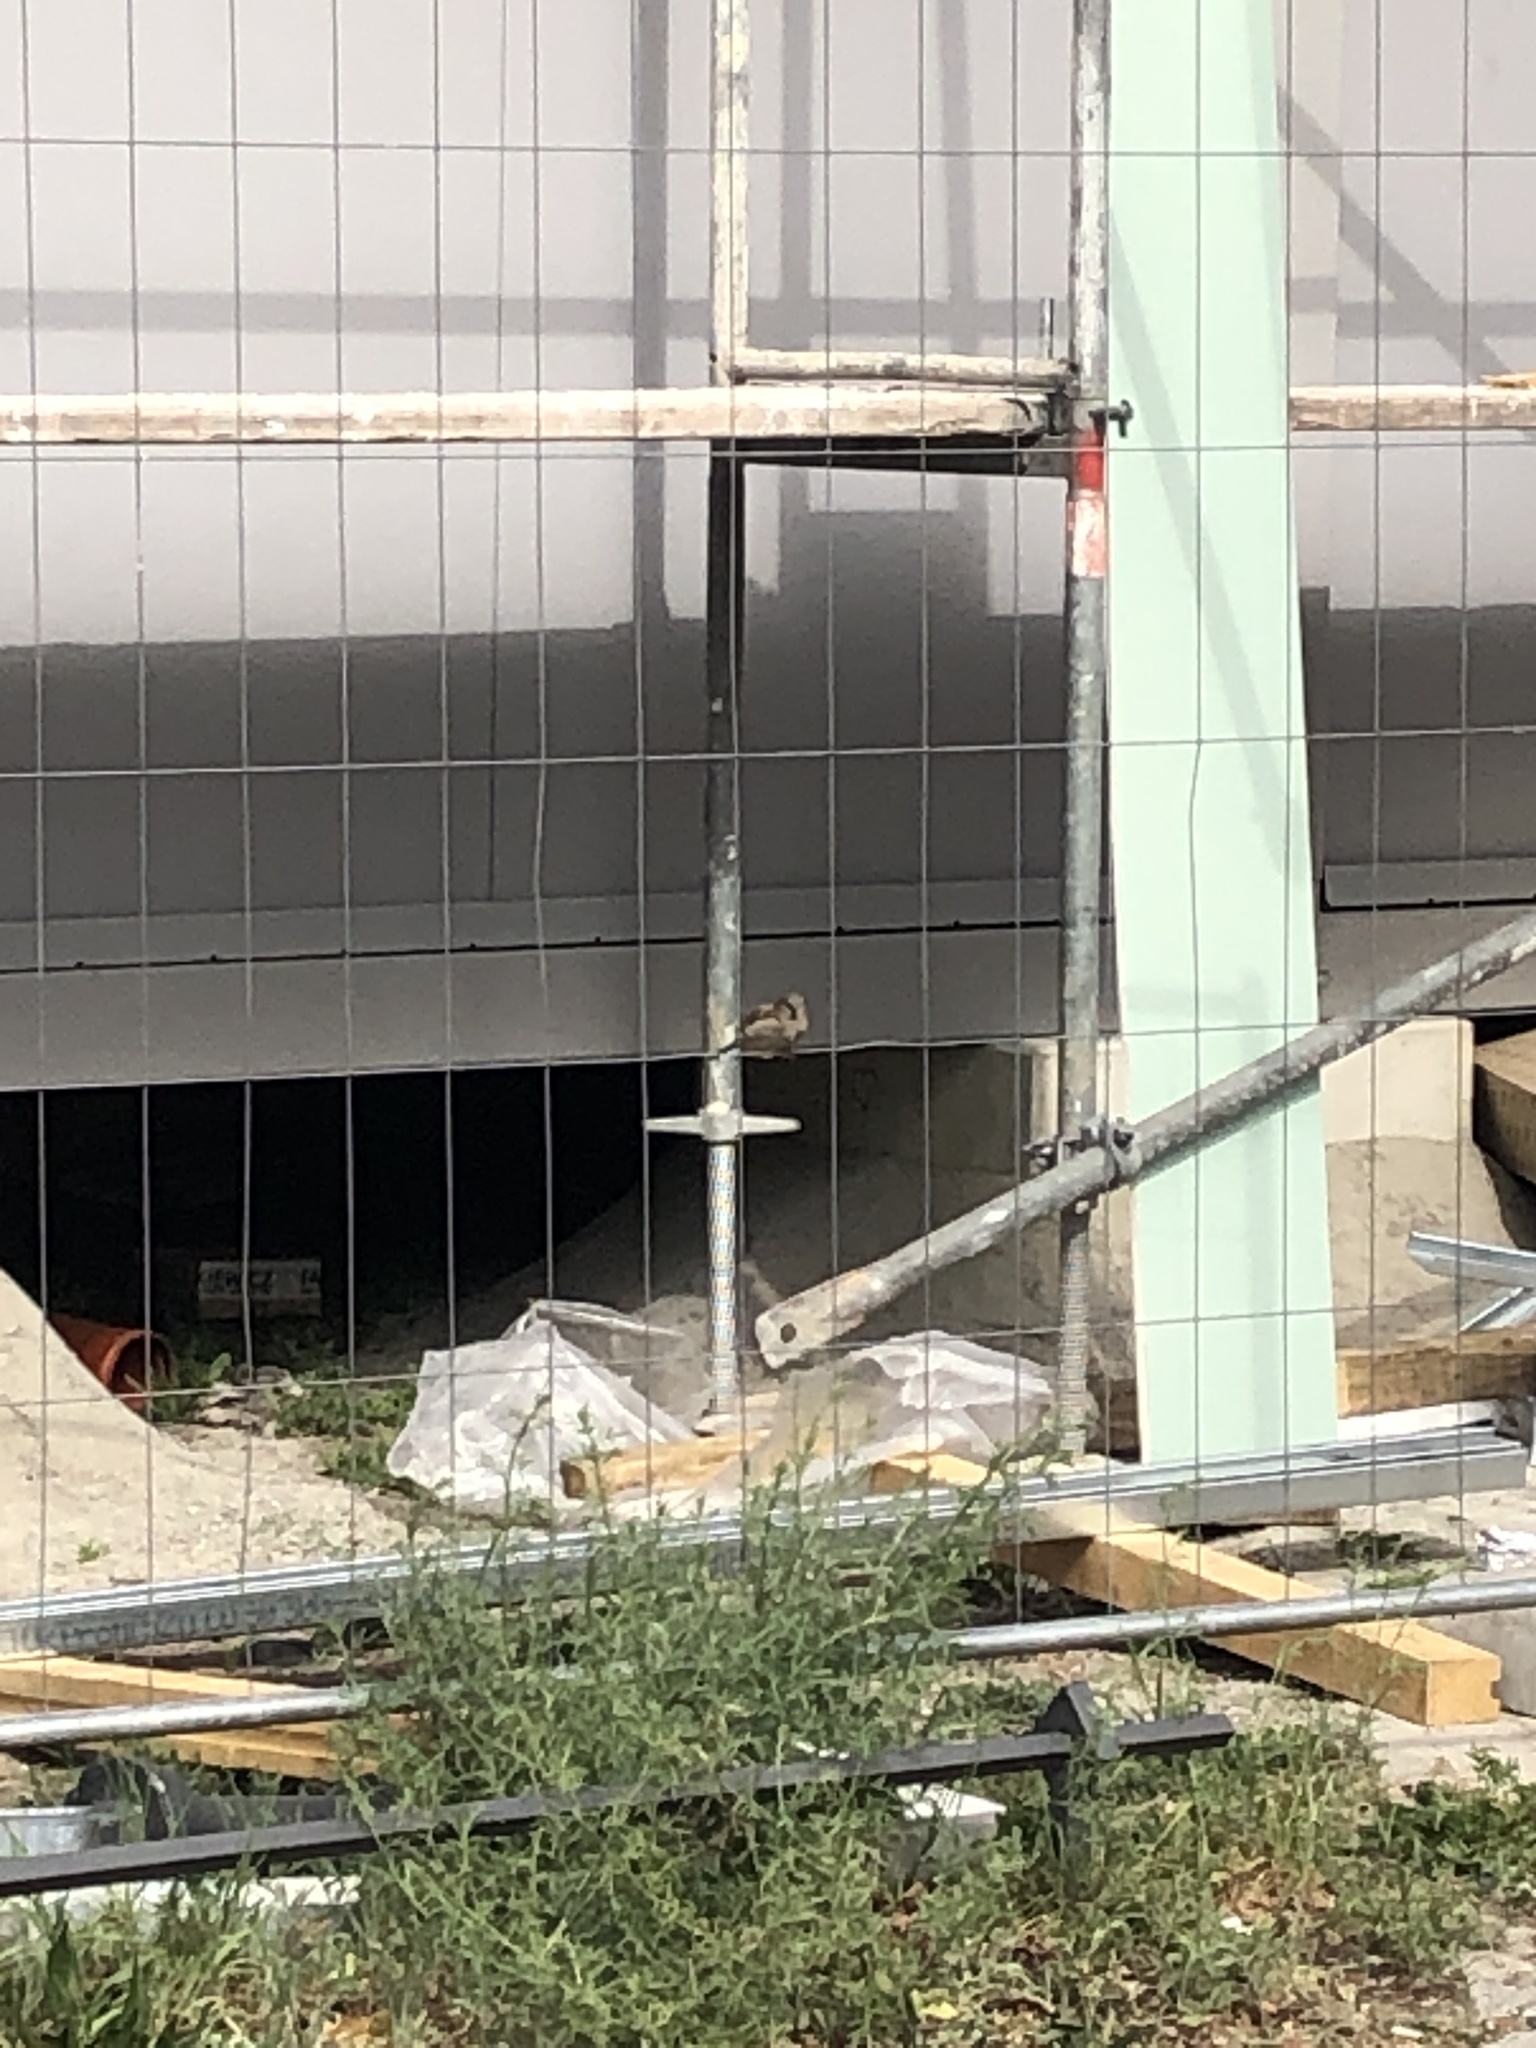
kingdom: Animalia
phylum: Chordata
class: Aves
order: Passeriformes
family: Passeridae
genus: Passer
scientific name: Passer domesticus
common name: House sparrow
